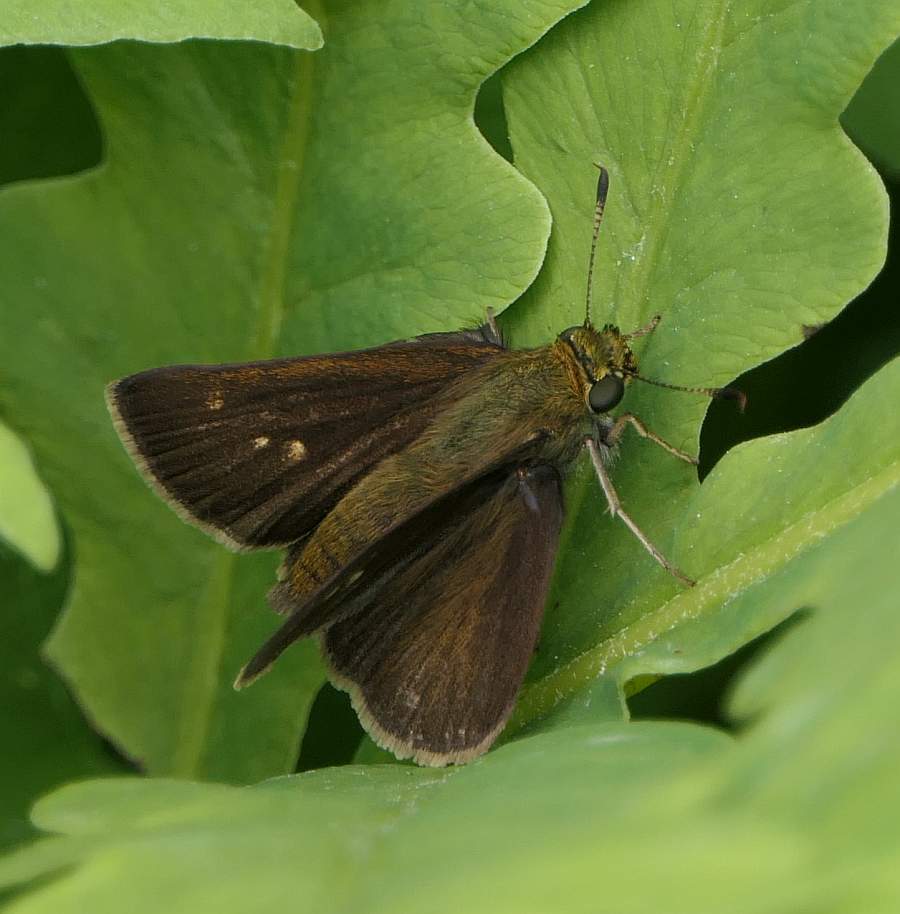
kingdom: Animalia
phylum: Arthropoda
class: Insecta
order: Lepidoptera
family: Hesperiidae
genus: Euphyes
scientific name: Euphyes vestris
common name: Dun skipper
